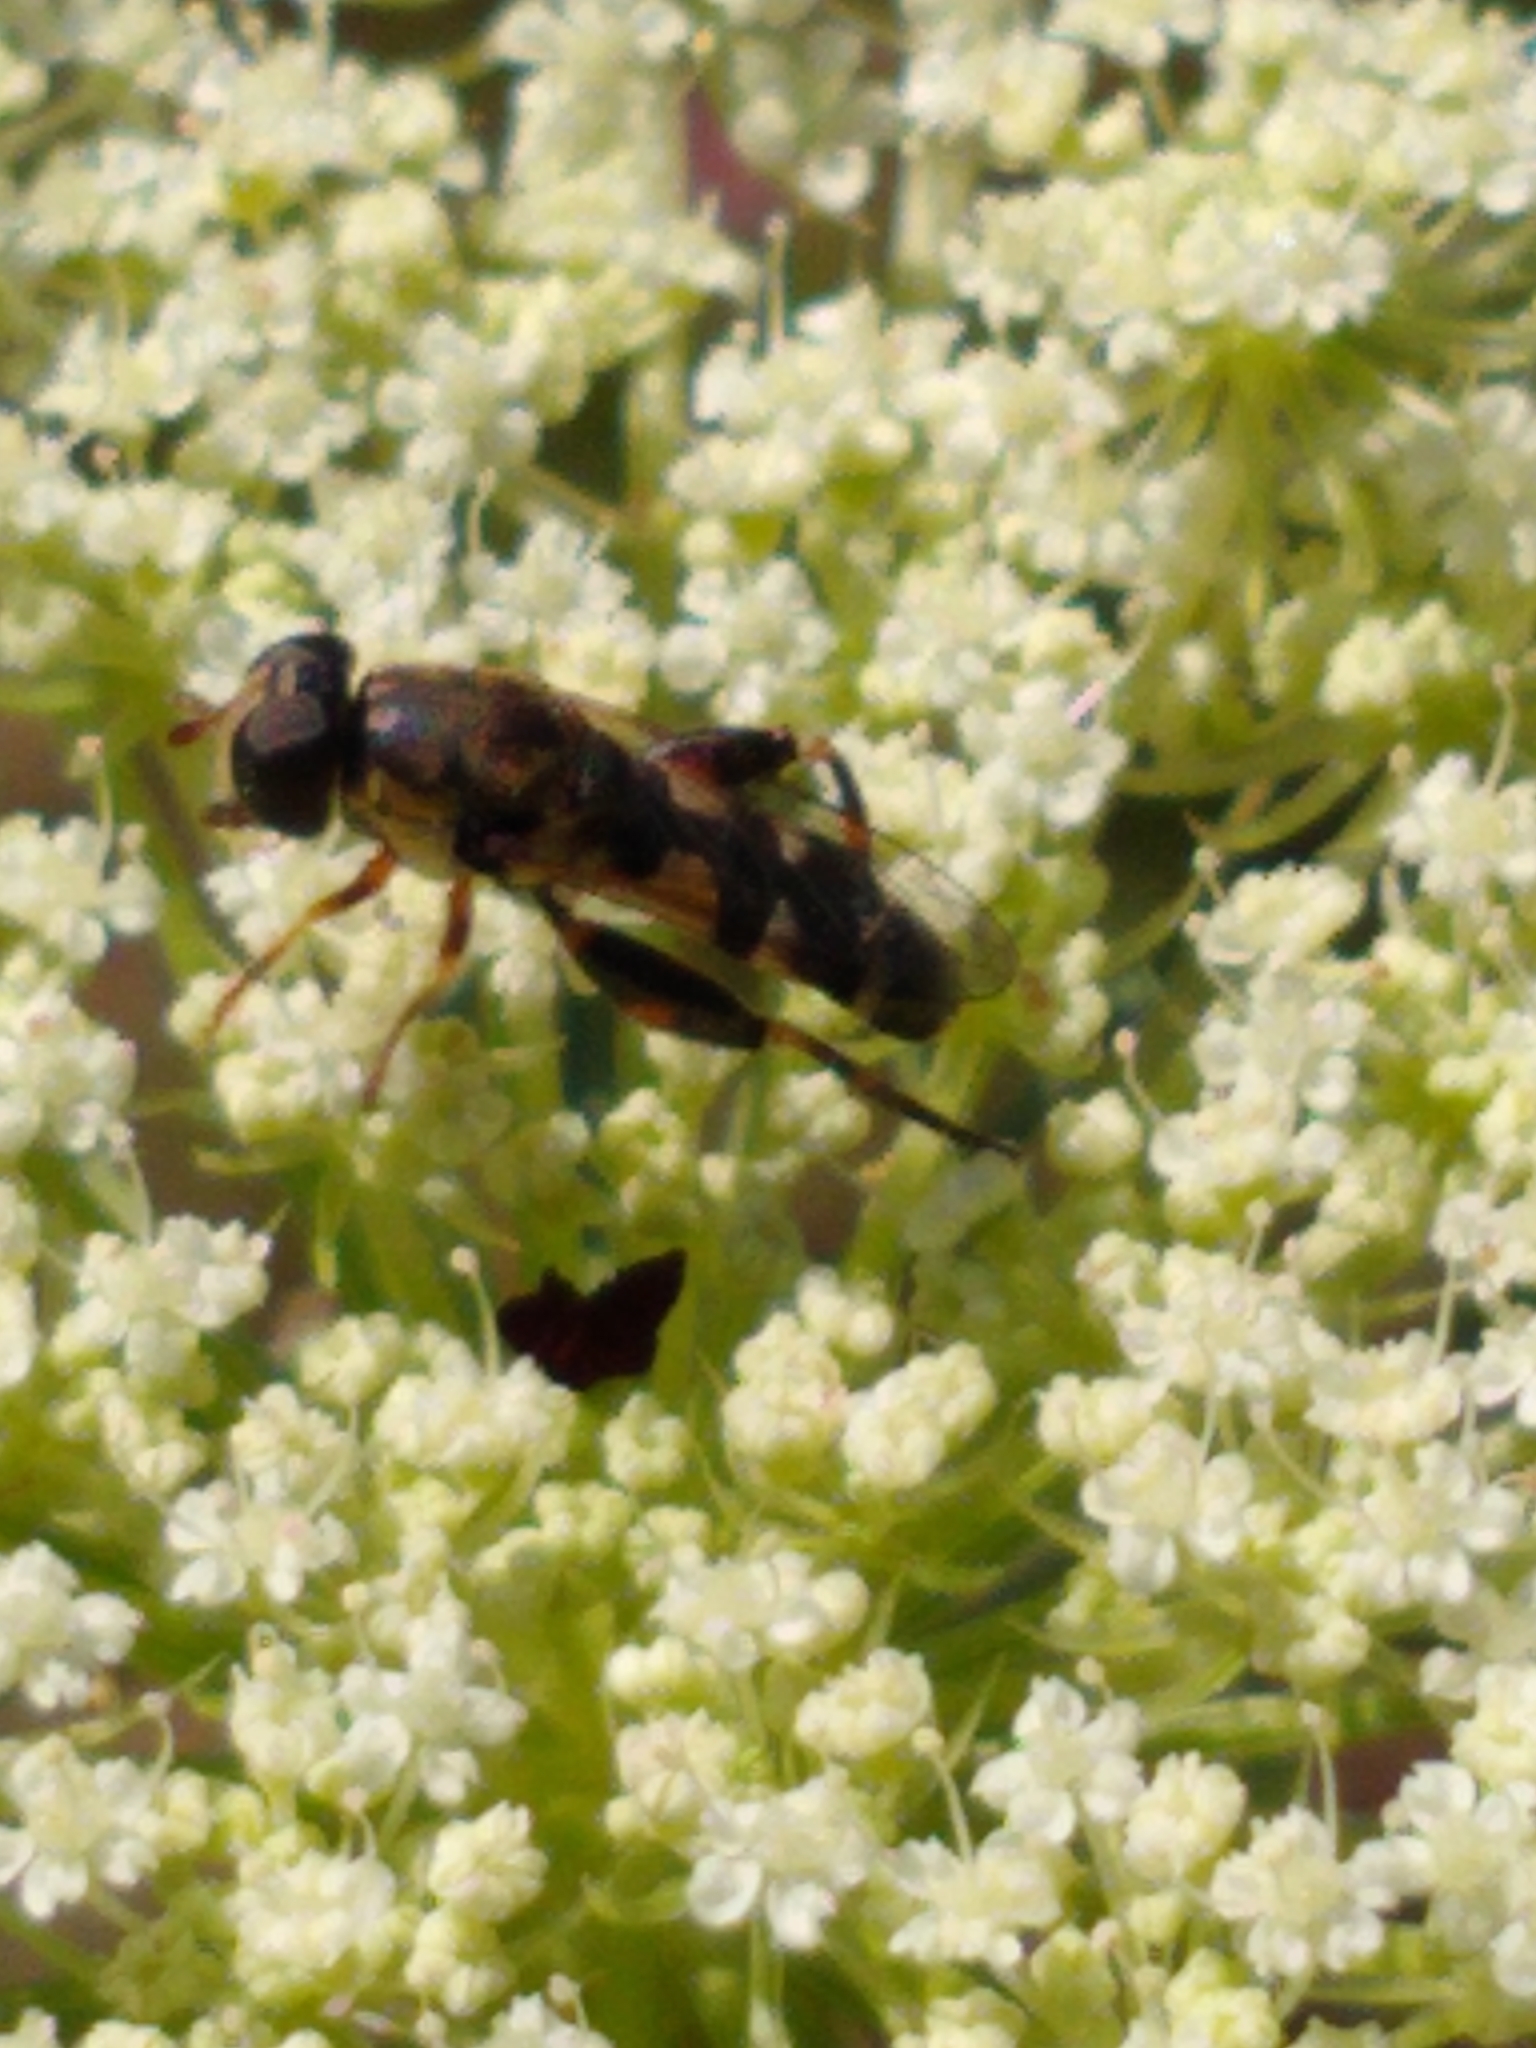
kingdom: Animalia
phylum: Arthropoda
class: Insecta
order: Diptera
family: Syrphidae
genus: Syritta
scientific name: Syritta pipiens
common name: Hover fly
